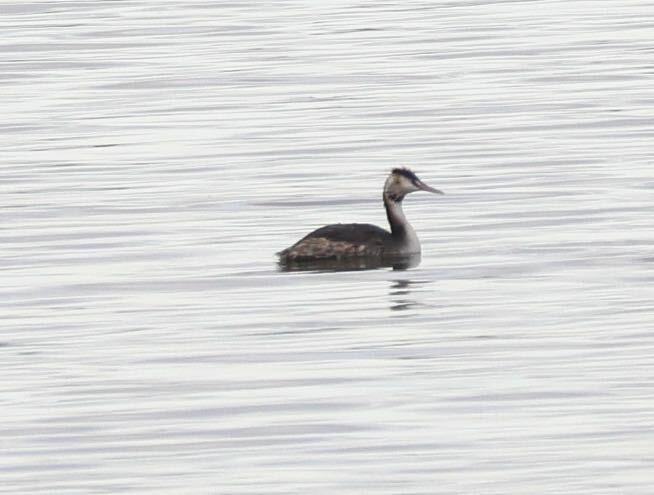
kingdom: Animalia
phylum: Chordata
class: Aves
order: Podicipediformes
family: Podicipedidae
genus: Podiceps
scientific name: Podiceps cristatus
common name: Great crested grebe
